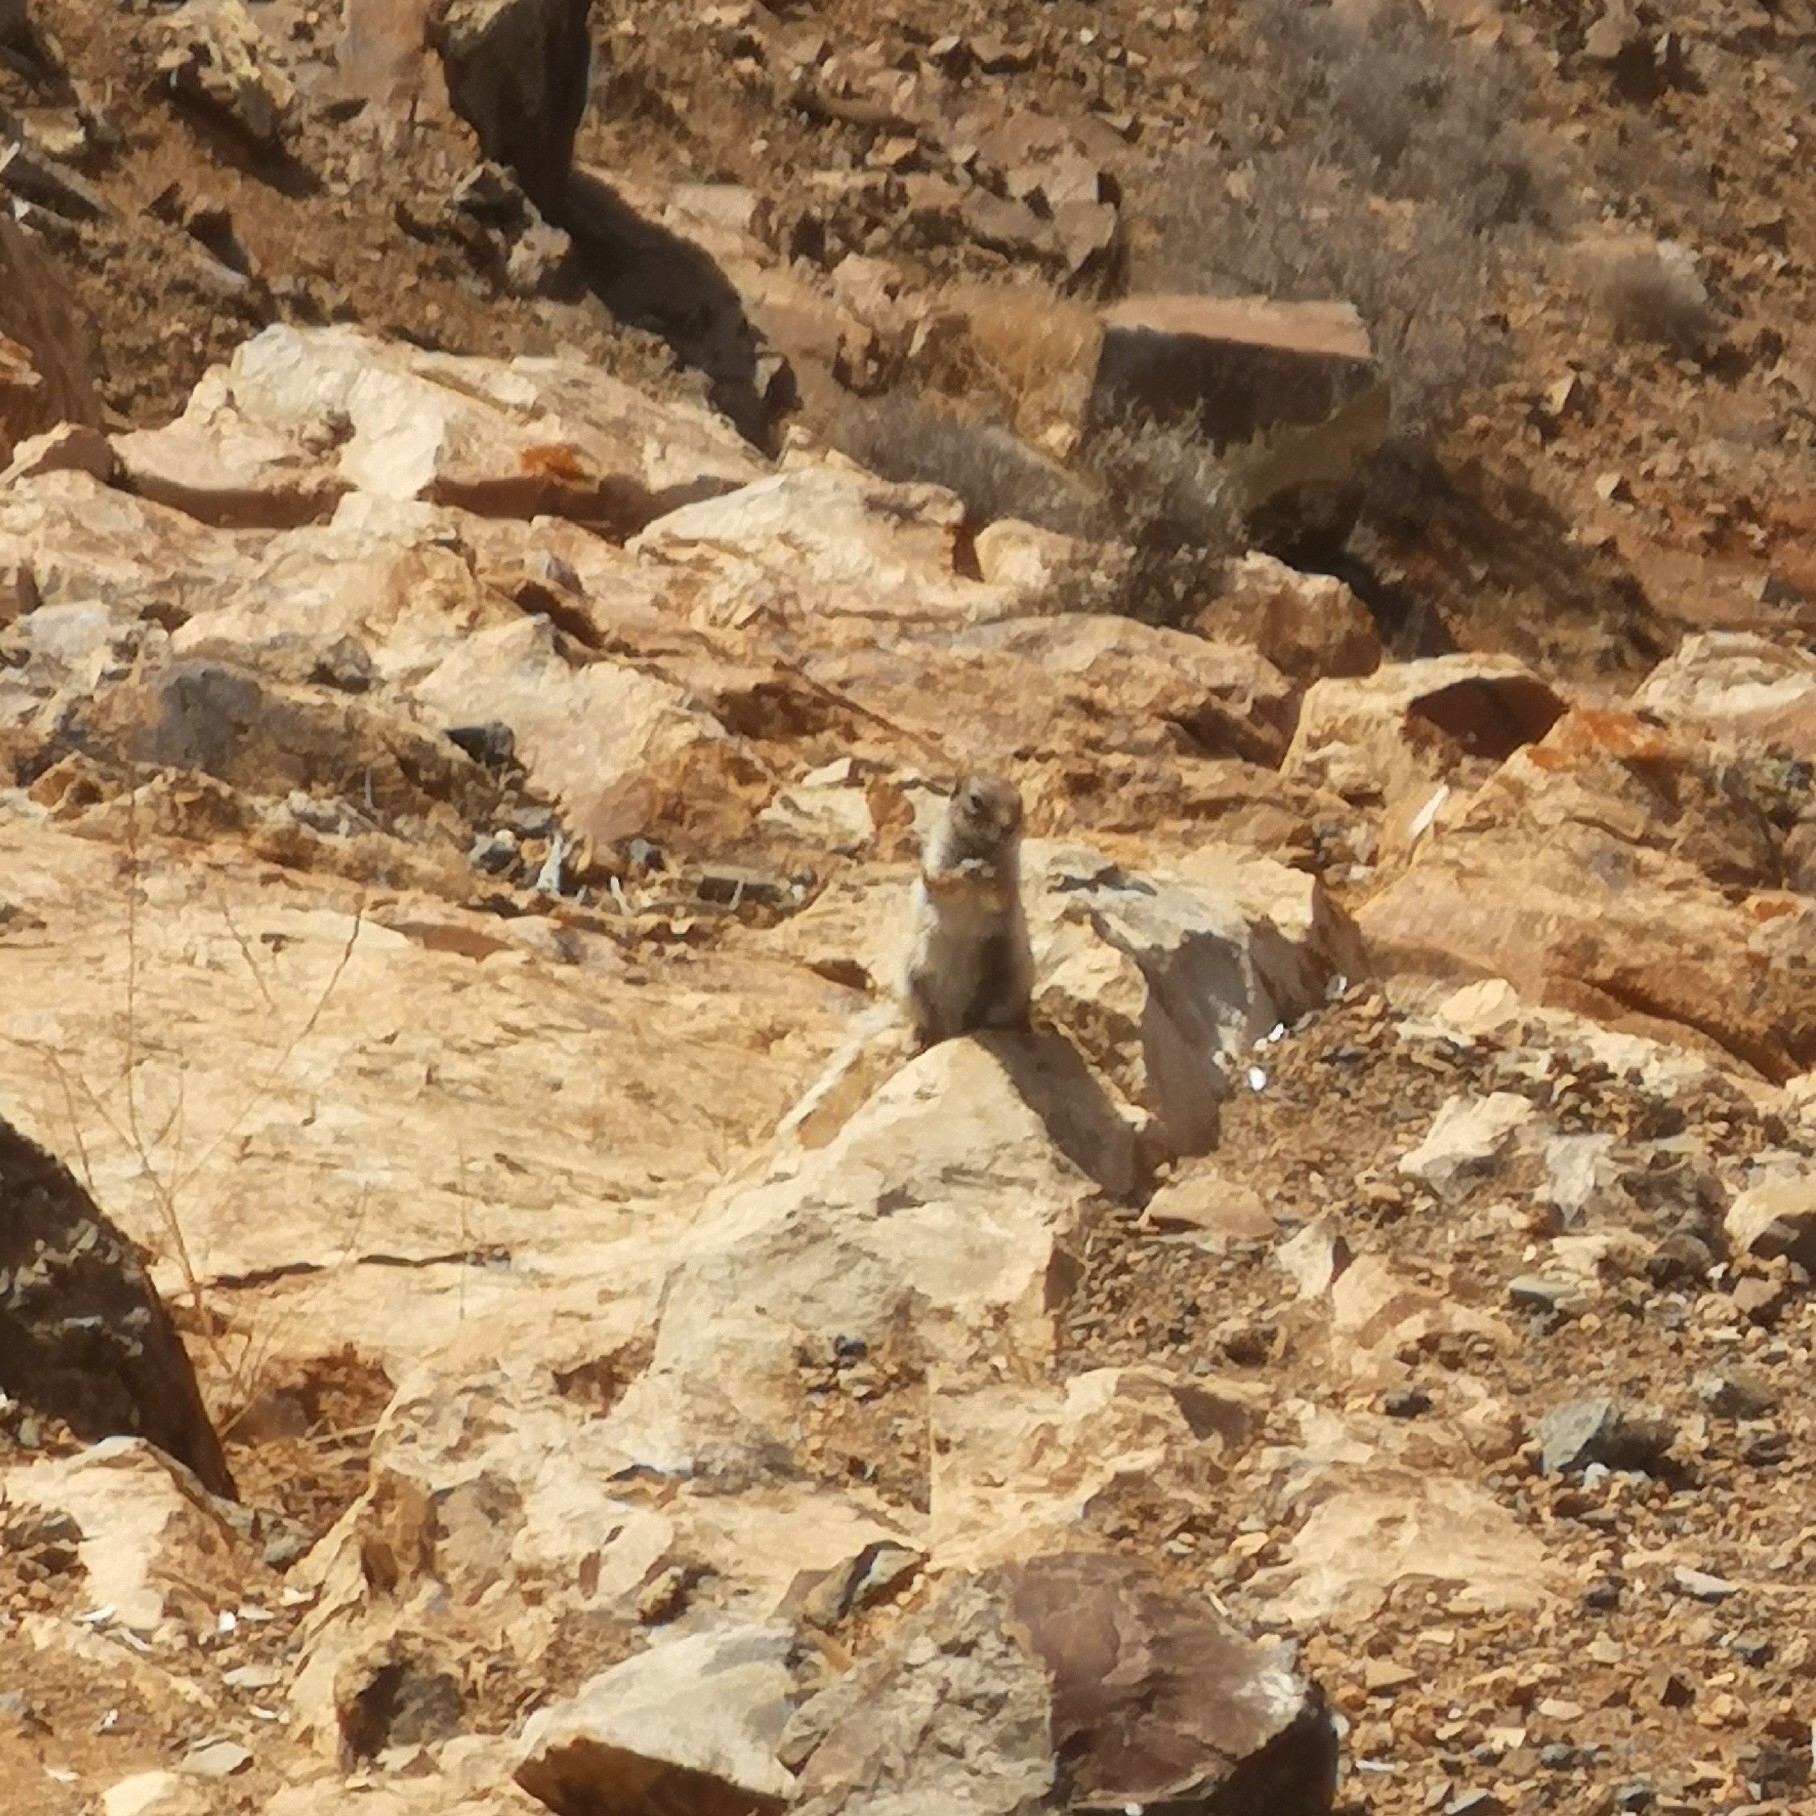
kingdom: Animalia
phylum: Chordata
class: Mammalia
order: Rodentia
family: Sciuridae
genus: Atlantoxerus
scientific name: Atlantoxerus getulus
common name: Barbary ground squirrel
